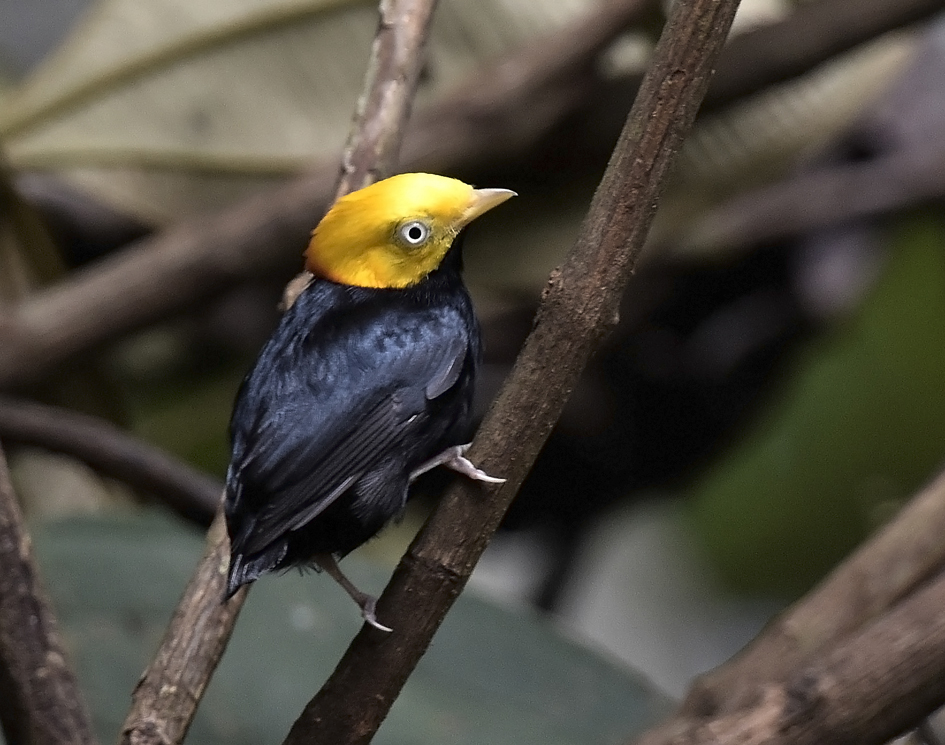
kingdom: Animalia
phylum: Chordata
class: Aves
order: Passeriformes
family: Pipridae
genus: Pipra
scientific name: Pipra erythrocephala
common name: Golden-headed manakin
